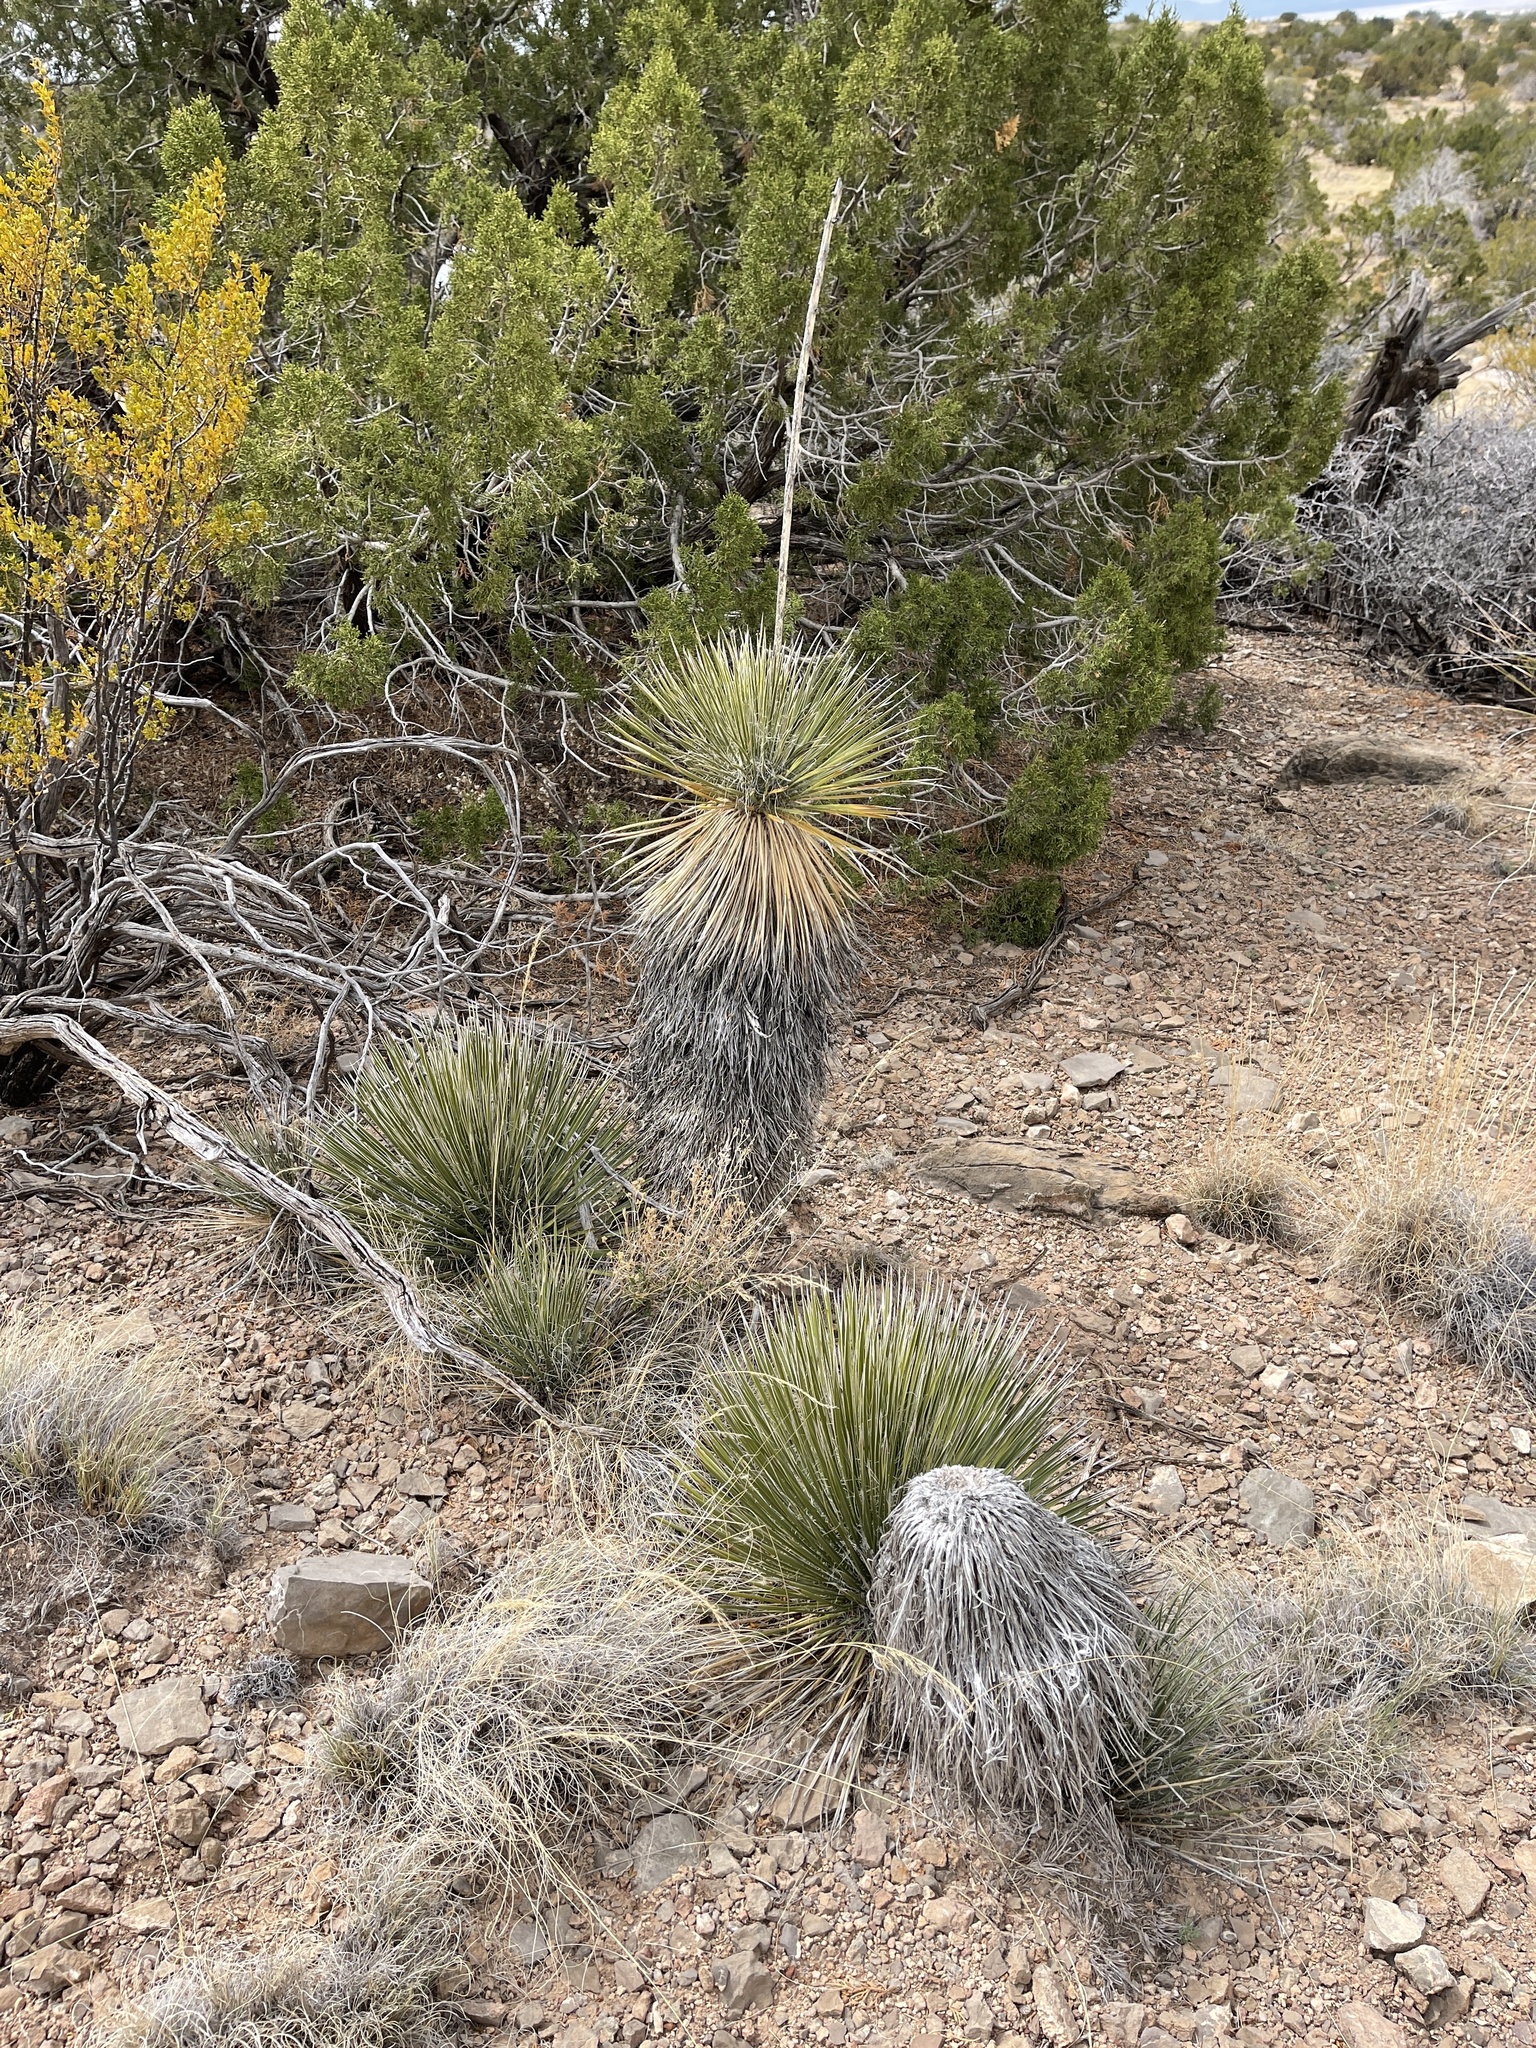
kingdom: Plantae
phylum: Tracheophyta
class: Liliopsida
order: Asparagales
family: Asparagaceae
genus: Yucca
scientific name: Yucca elata
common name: Palmella
